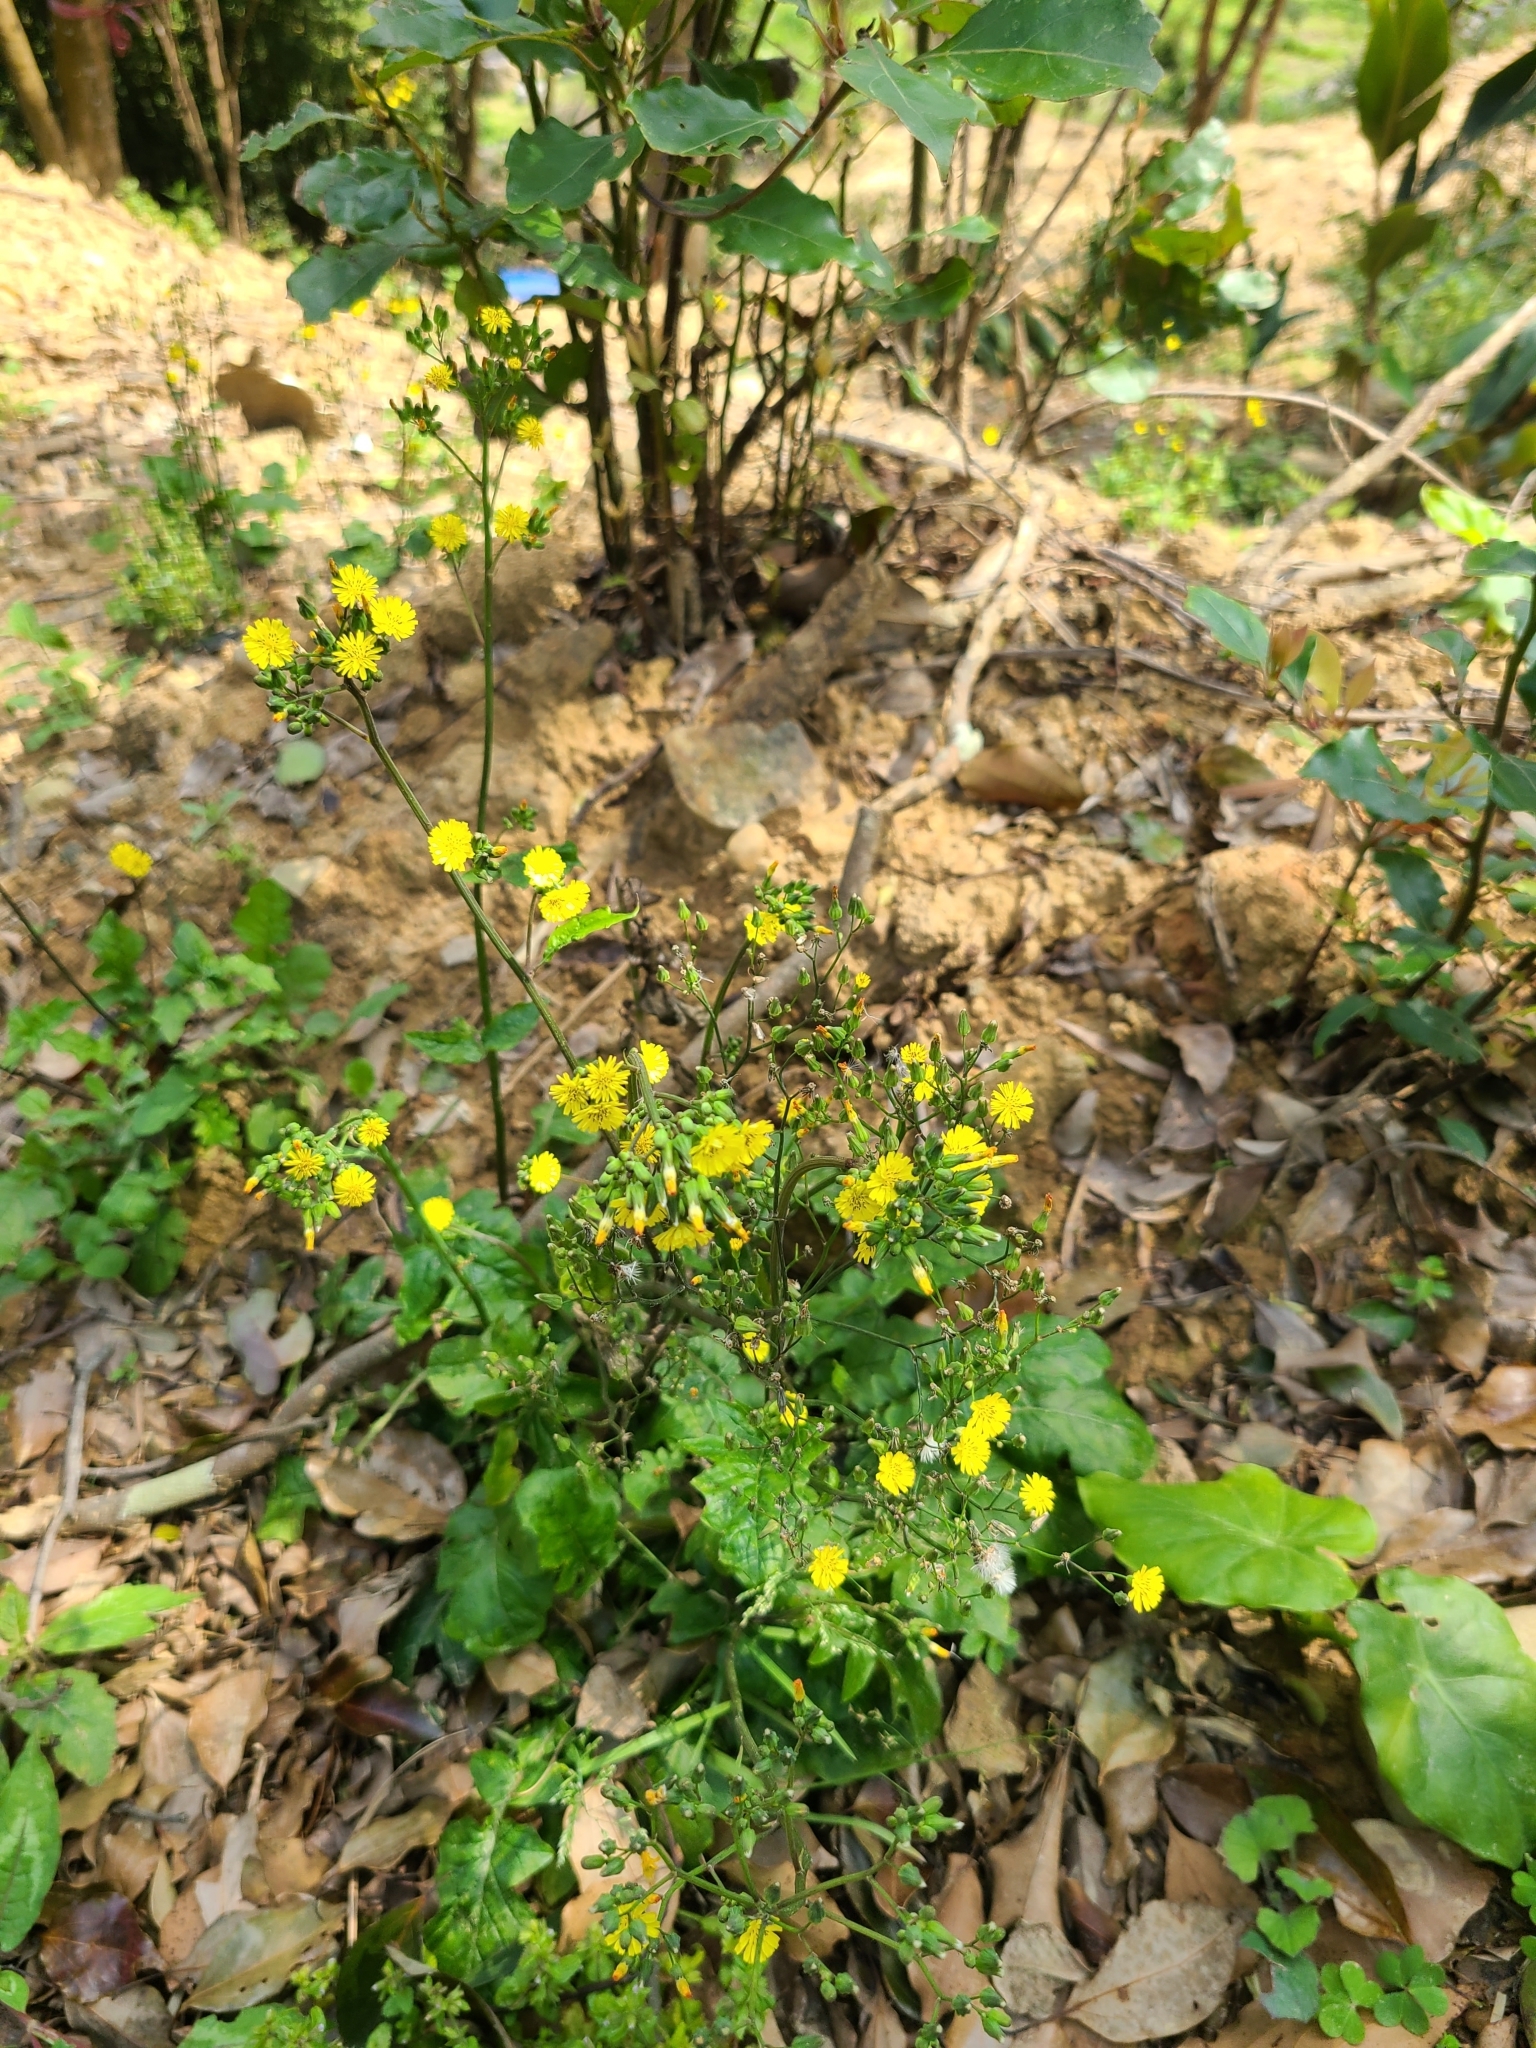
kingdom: Plantae
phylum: Tracheophyta
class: Magnoliopsida
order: Asterales
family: Asteraceae
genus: Youngia
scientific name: Youngia japonica
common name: Oriental false hawksbeard
